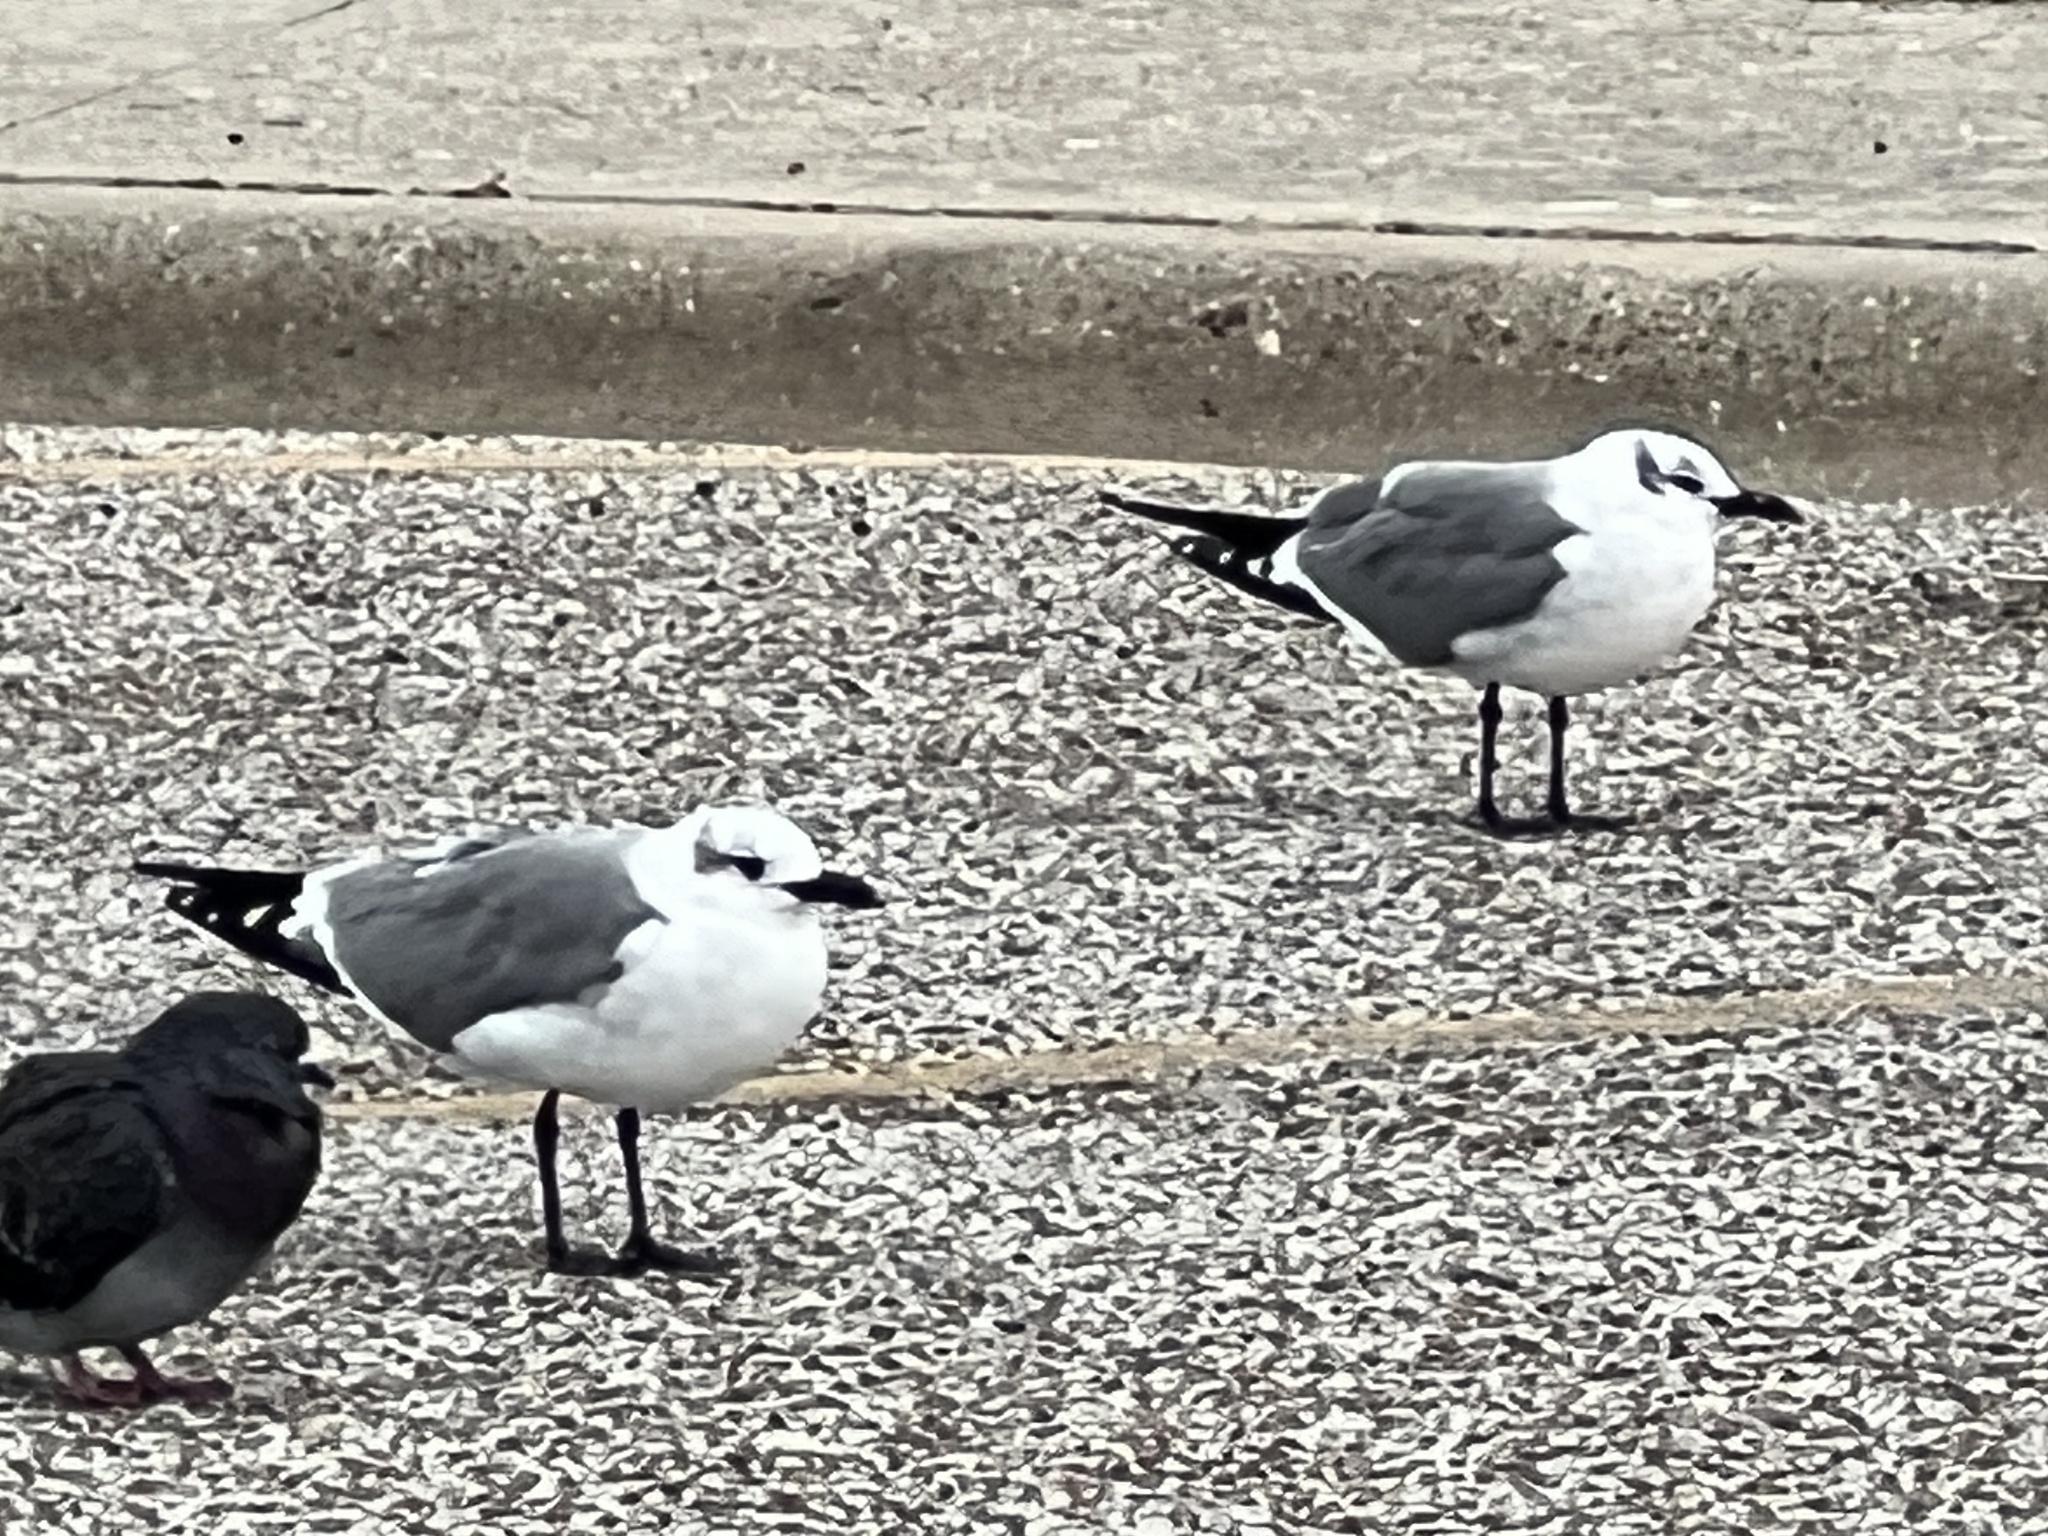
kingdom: Animalia
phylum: Chordata
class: Aves
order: Charadriiformes
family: Laridae
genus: Leucophaeus
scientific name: Leucophaeus atricilla
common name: Laughing gull
